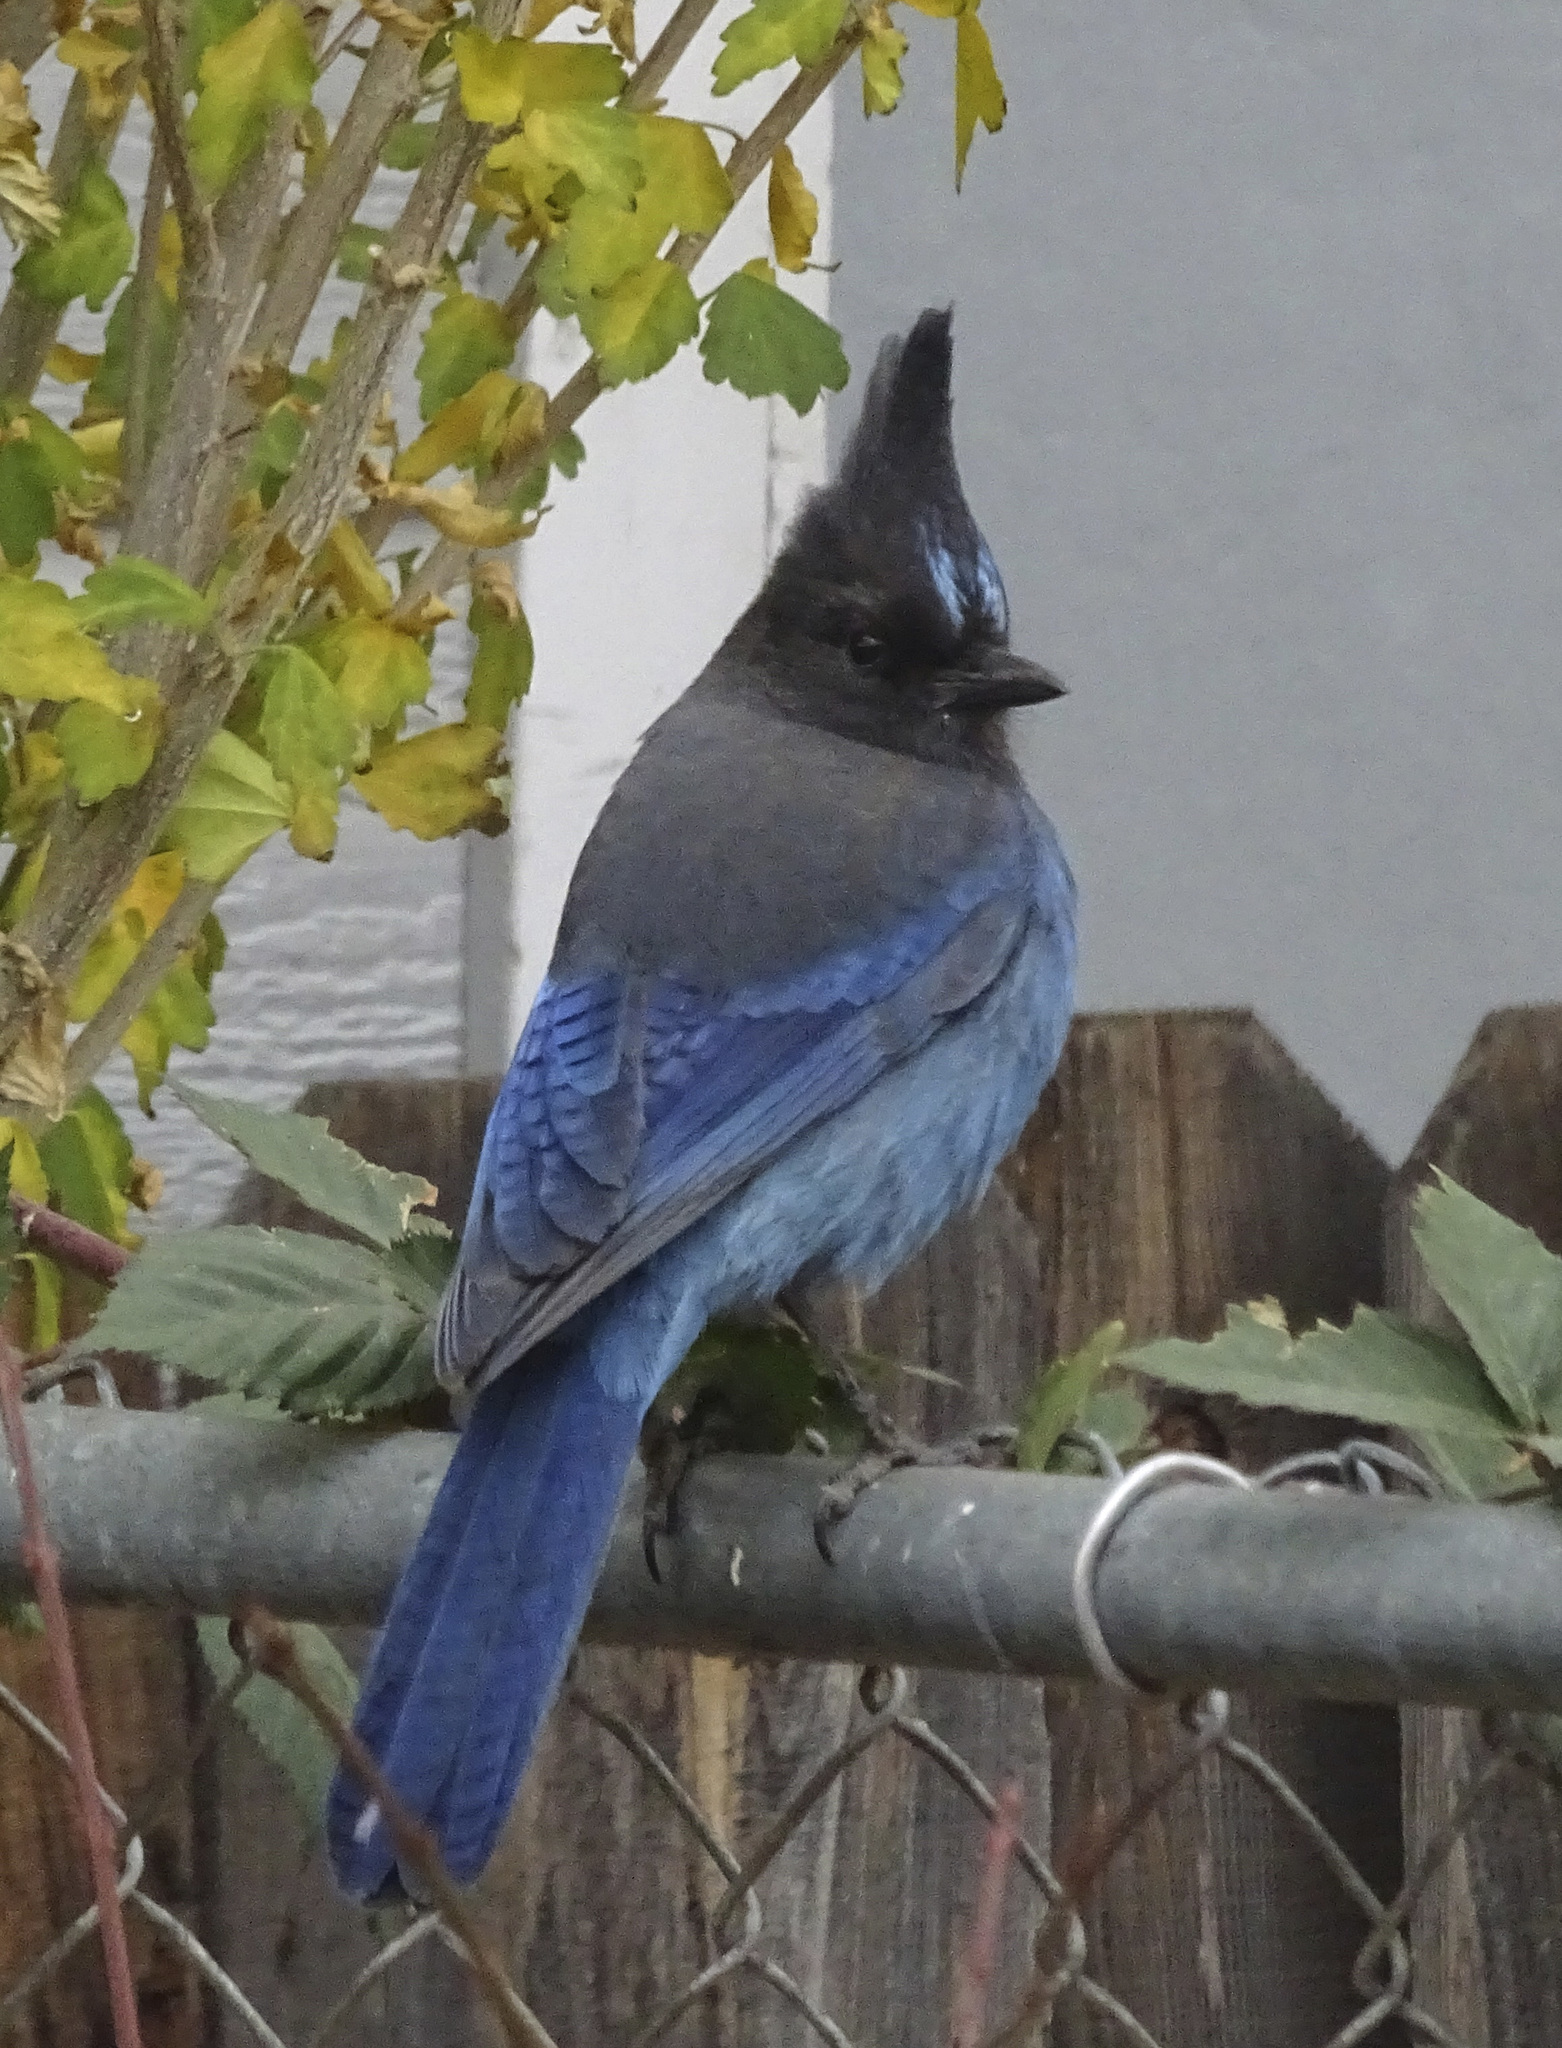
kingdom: Animalia
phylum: Chordata
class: Aves
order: Passeriformes
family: Corvidae
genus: Cyanocitta
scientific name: Cyanocitta stelleri
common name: Steller's jay
